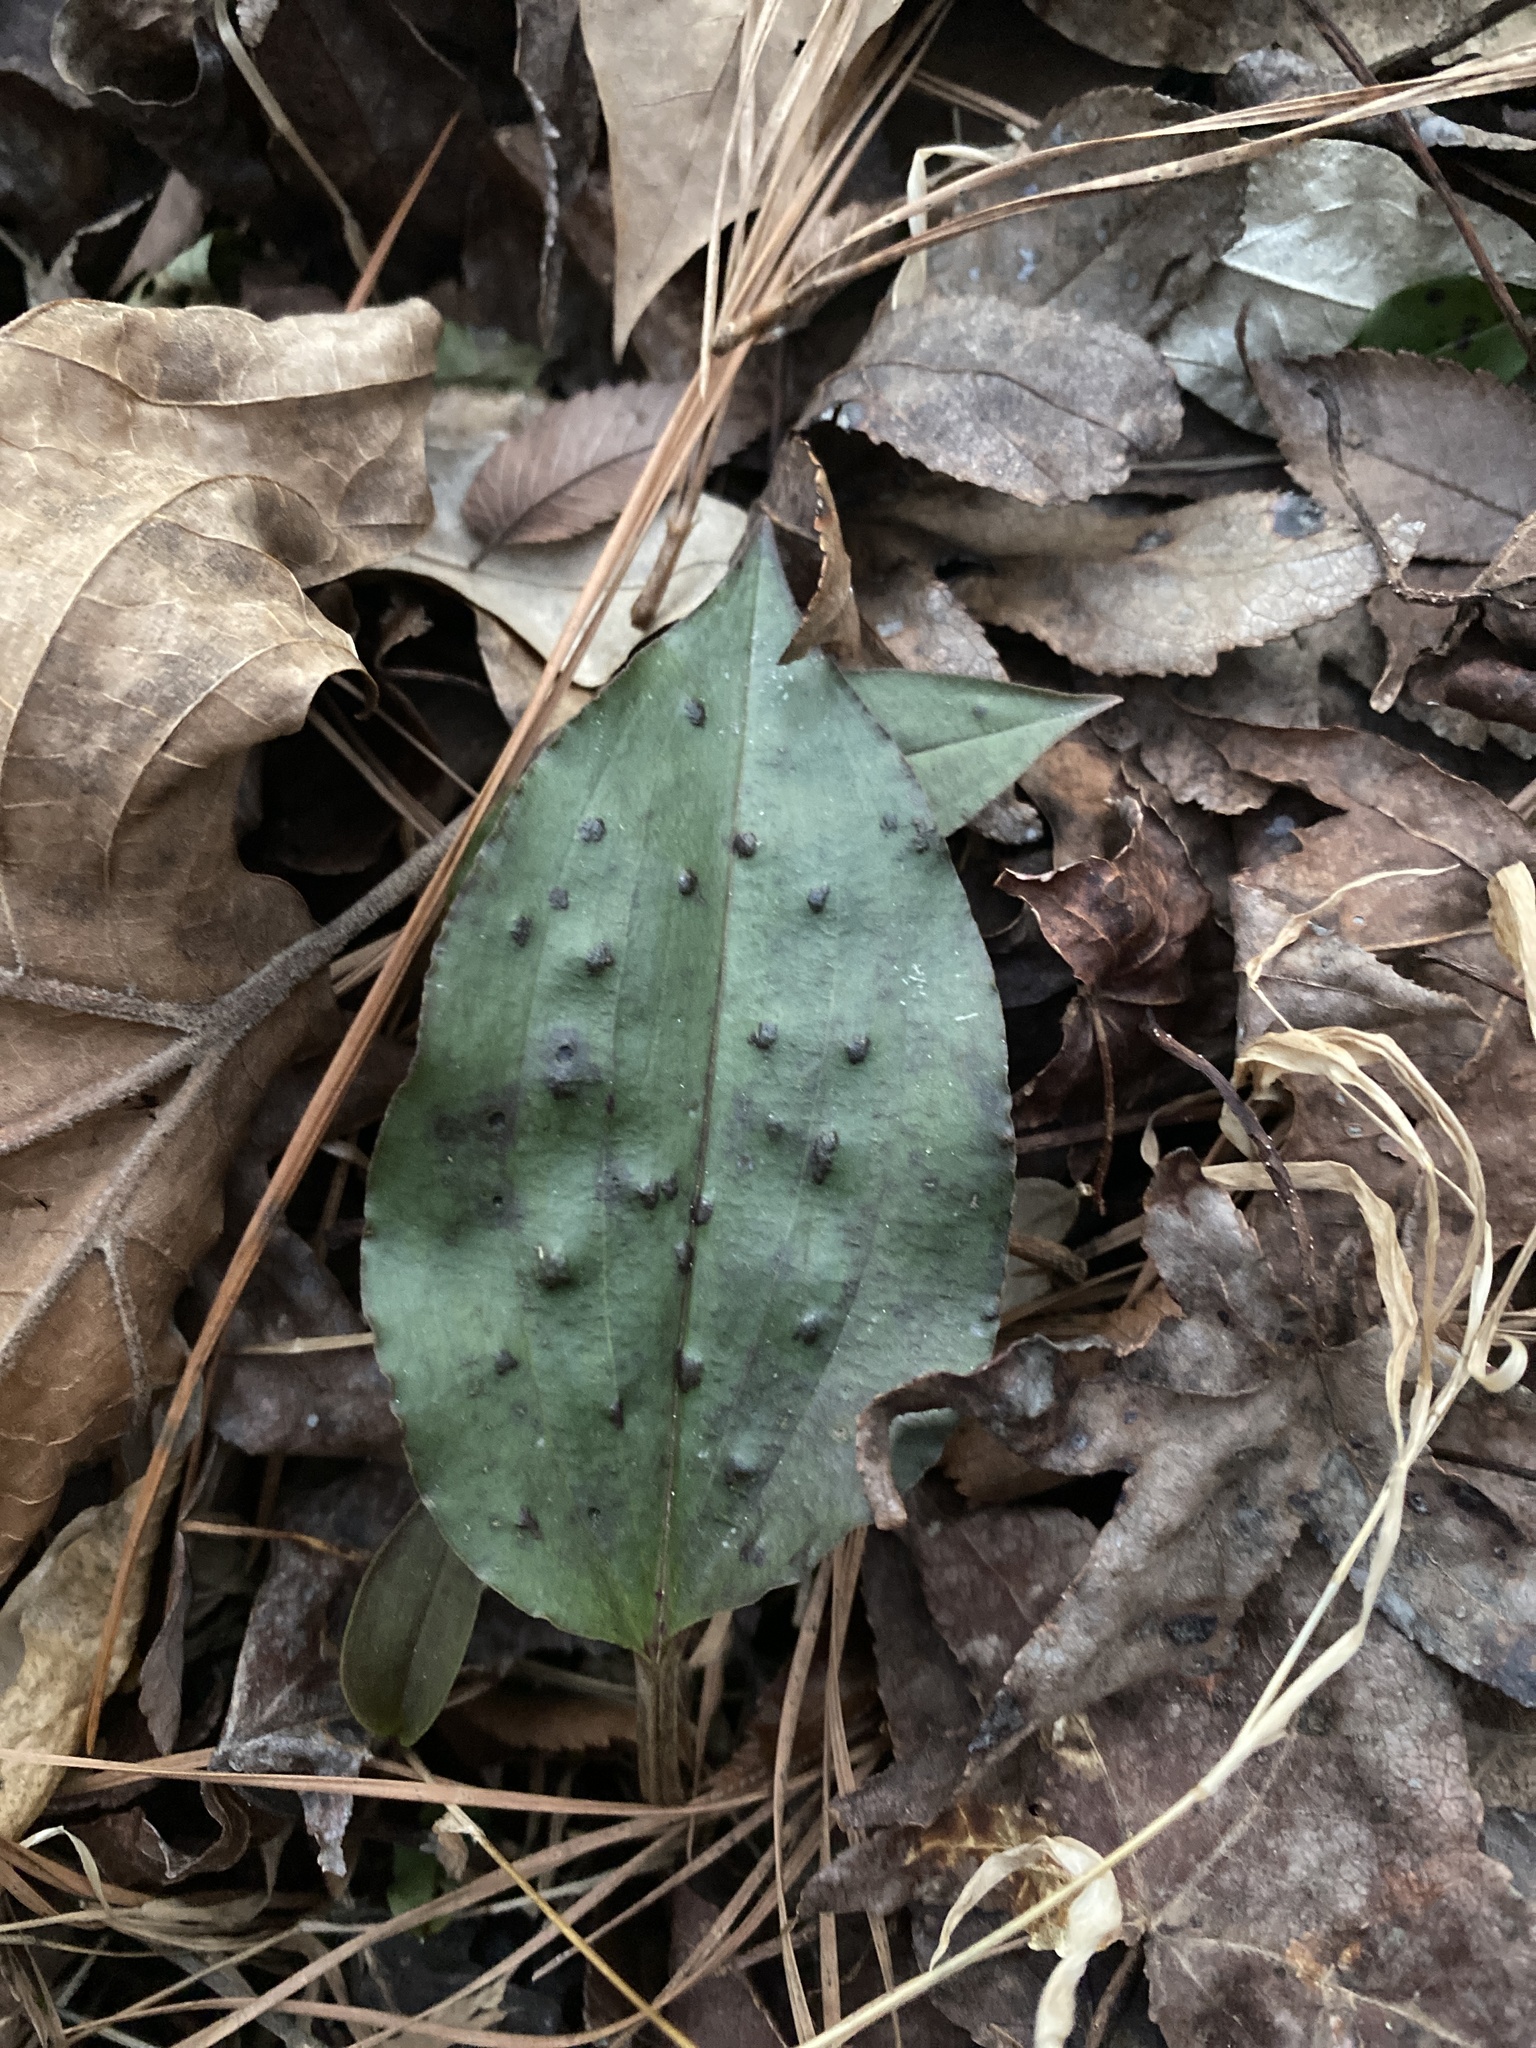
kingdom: Plantae
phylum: Tracheophyta
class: Liliopsida
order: Asparagales
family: Orchidaceae
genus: Tipularia
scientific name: Tipularia discolor
